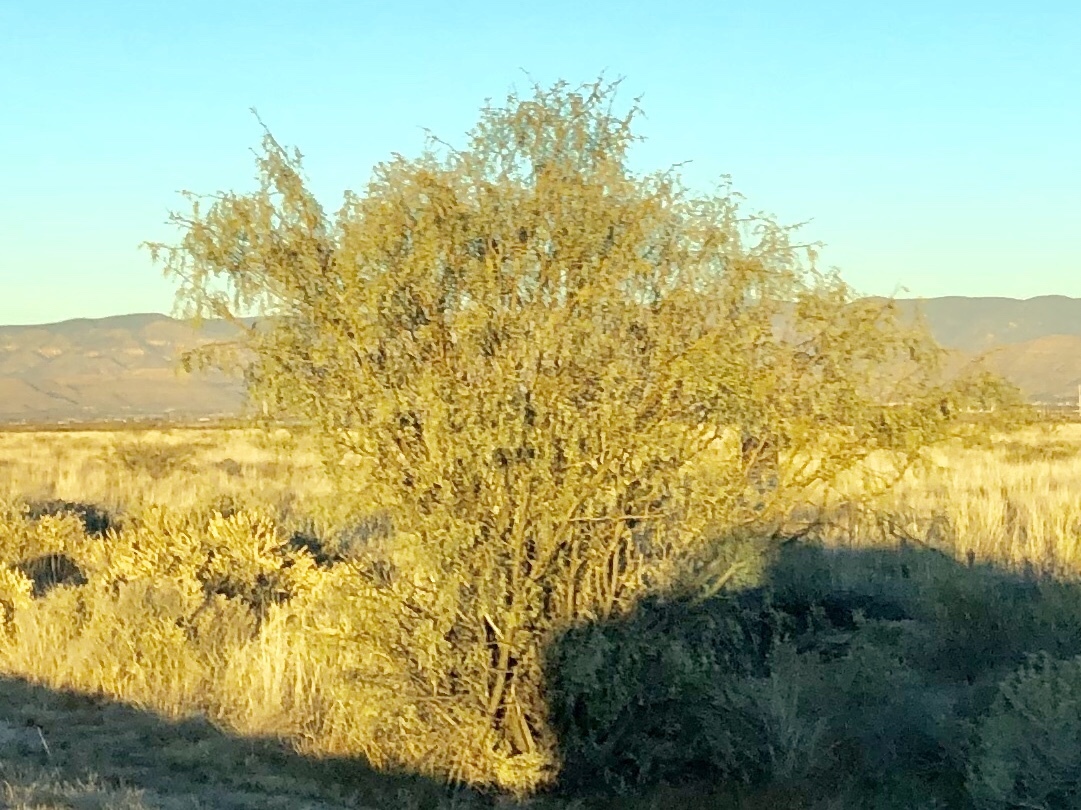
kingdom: Plantae
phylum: Tracheophyta
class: Magnoliopsida
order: Fabales
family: Fabaceae
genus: Prosopis
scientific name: Prosopis glandulosa
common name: Honey mesquite
